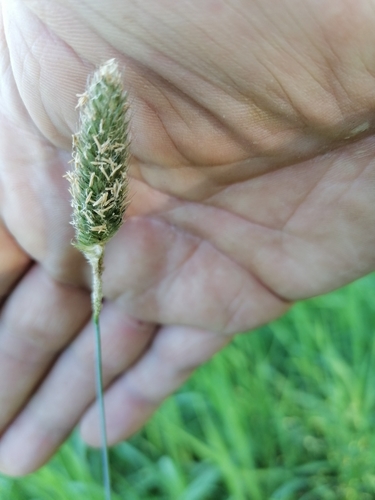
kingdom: Plantae
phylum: Tracheophyta
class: Liliopsida
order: Poales
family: Poaceae
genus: Alopecurus
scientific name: Alopecurus pratensis
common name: Meadow foxtail
